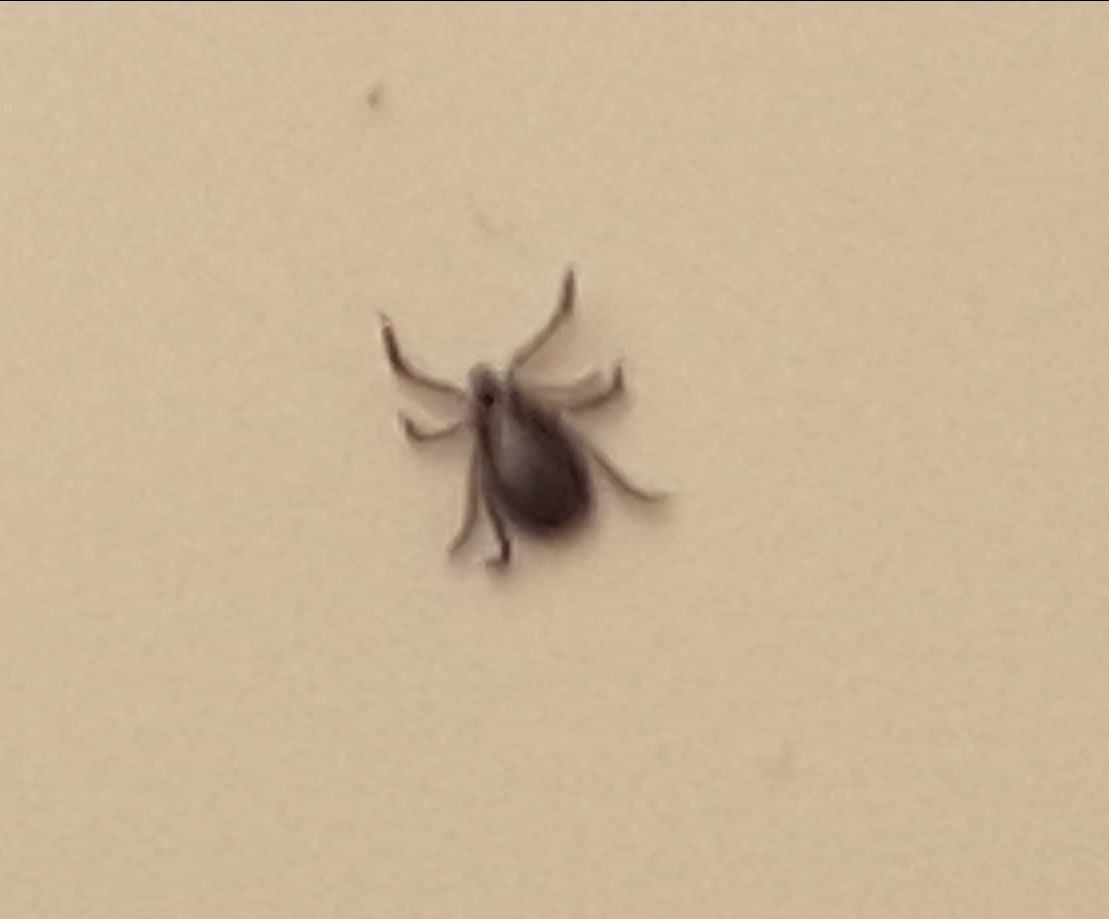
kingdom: Animalia
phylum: Arthropoda
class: Arachnida
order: Ixodida
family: Ixodidae
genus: Ixodes
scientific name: Ixodes scapularis
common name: Black legged tick
